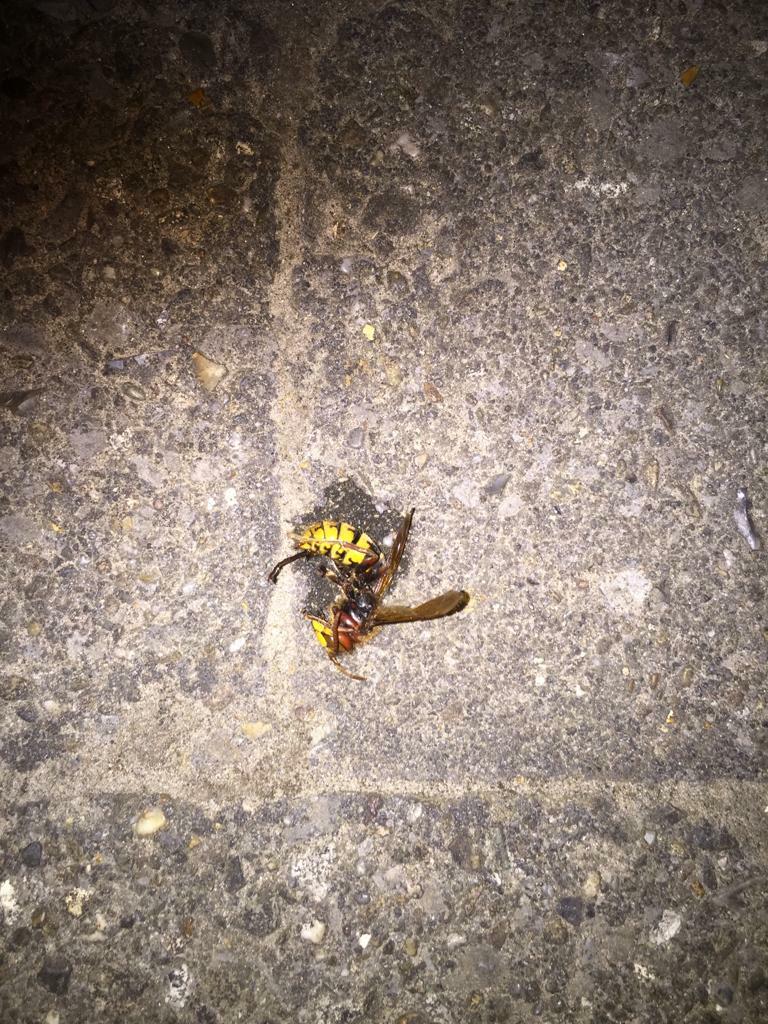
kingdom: Animalia
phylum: Arthropoda
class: Insecta
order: Hymenoptera
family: Vespidae
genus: Vespa
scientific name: Vespa crabro
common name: Hornet
